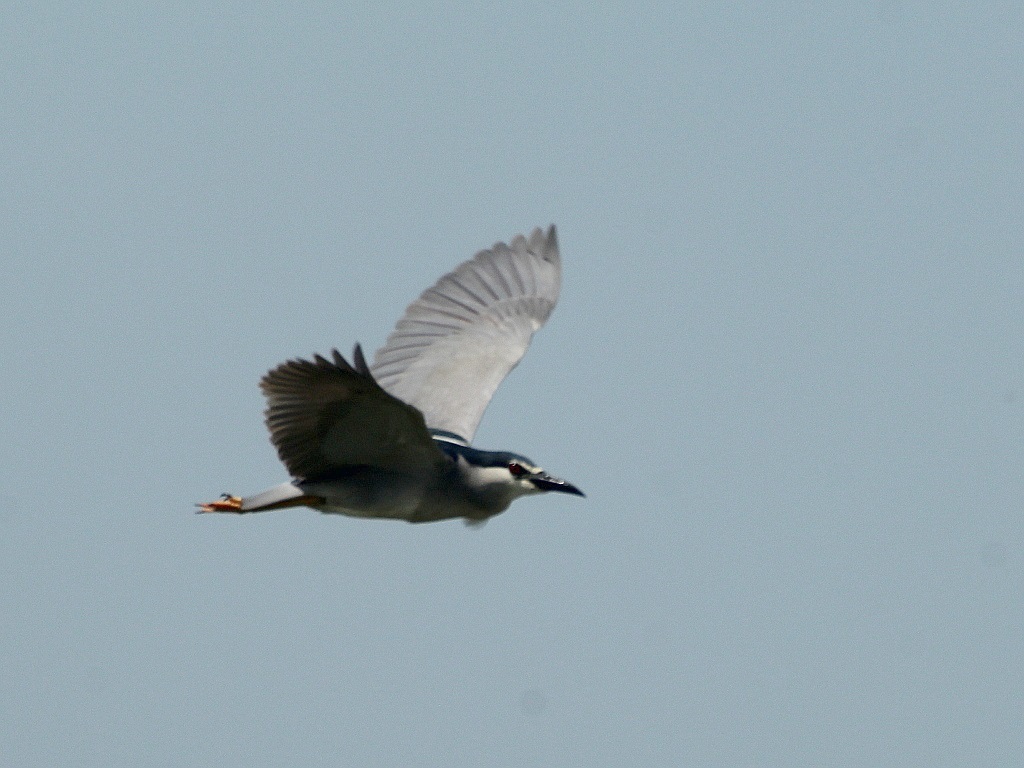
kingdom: Animalia
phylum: Chordata
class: Aves
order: Pelecaniformes
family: Ardeidae
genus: Nycticorax
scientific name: Nycticorax nycticorax
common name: Black-crowned night heron
